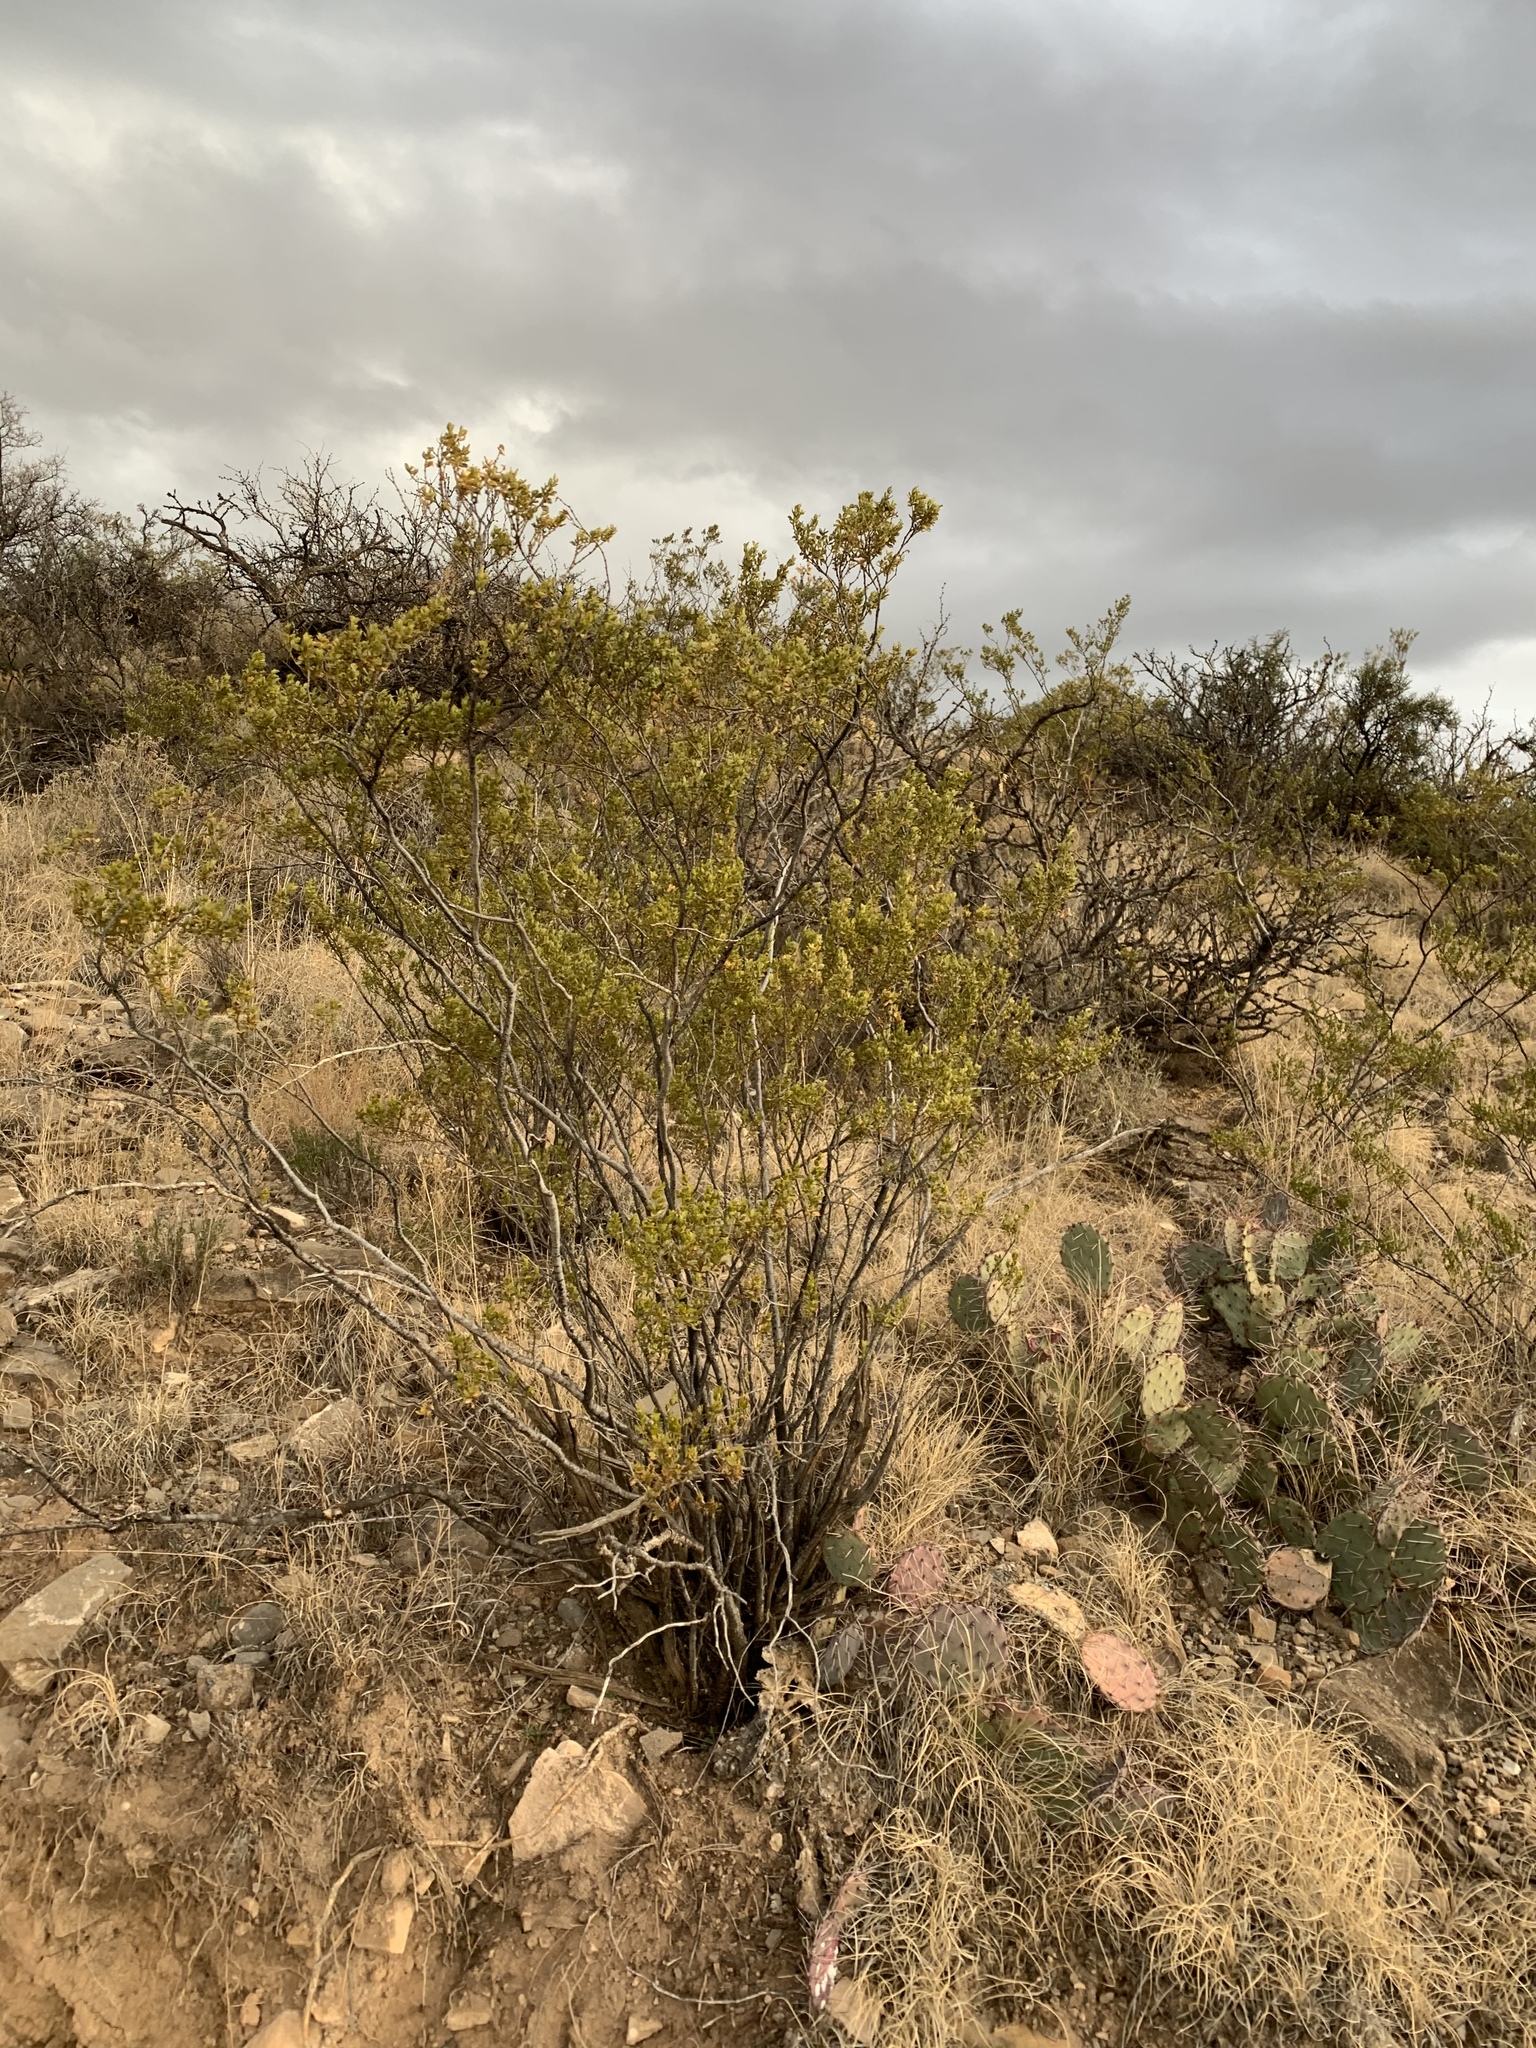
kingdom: Plantae
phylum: Tracheophyta
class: Magnoliopsida
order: Zygophyllales
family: Zygophyllaceae
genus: Larrea
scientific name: Larrea tridentata
